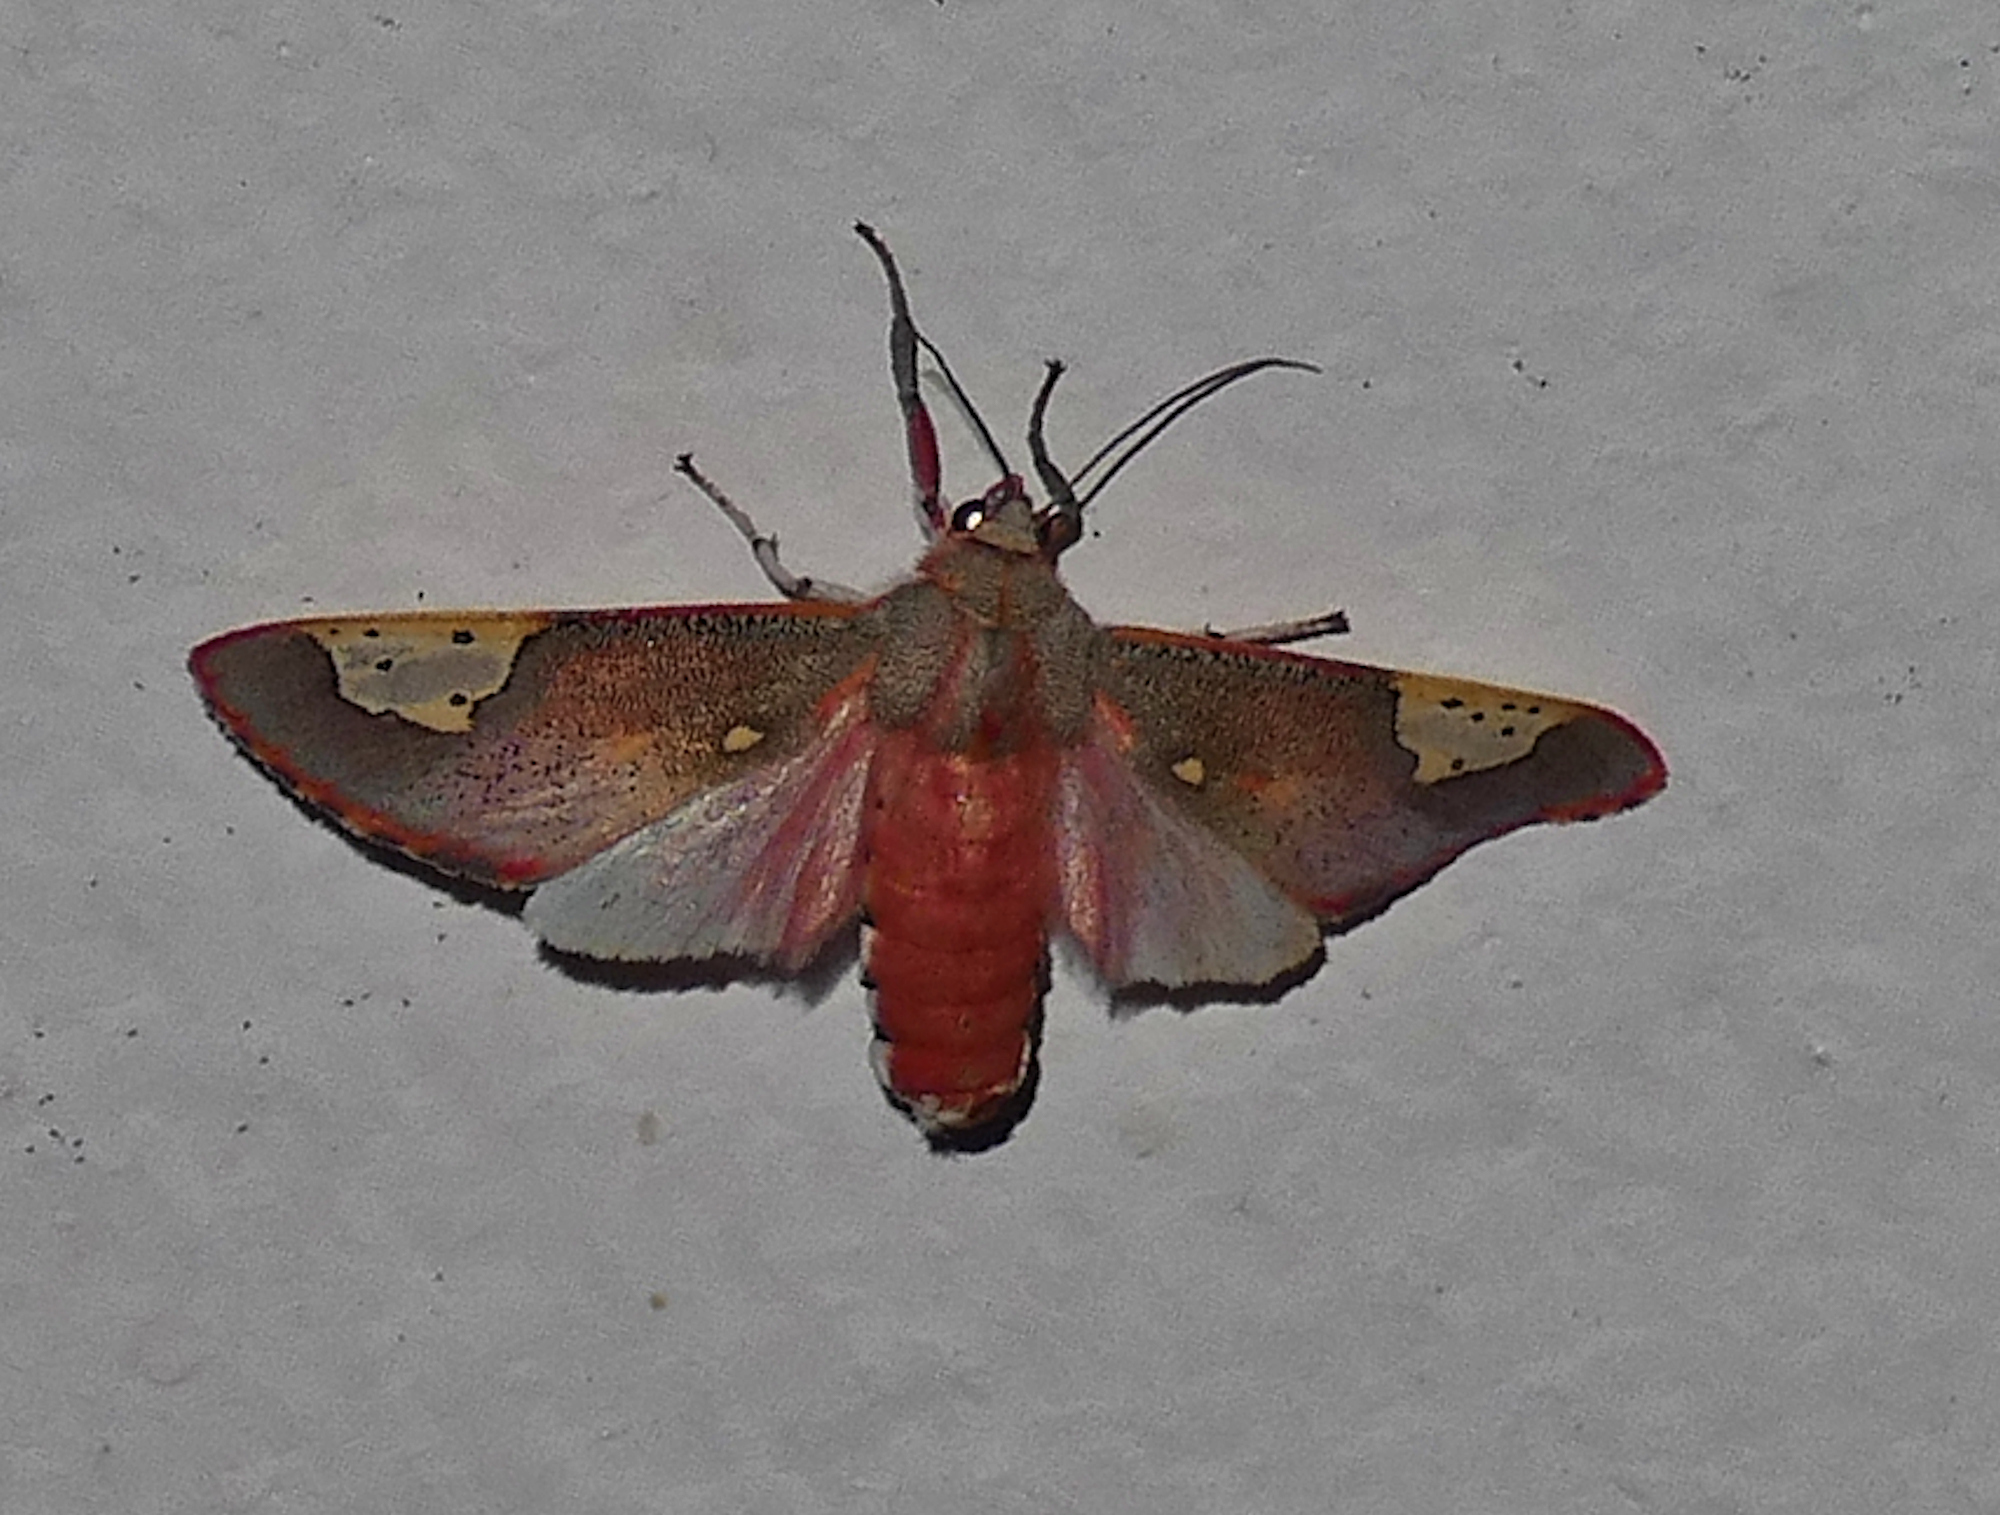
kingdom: Animalia
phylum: Arthropoda
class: Insecta
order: Lepidoptera
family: Erebidae
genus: Bertholdia
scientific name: Bertholdia trigona
